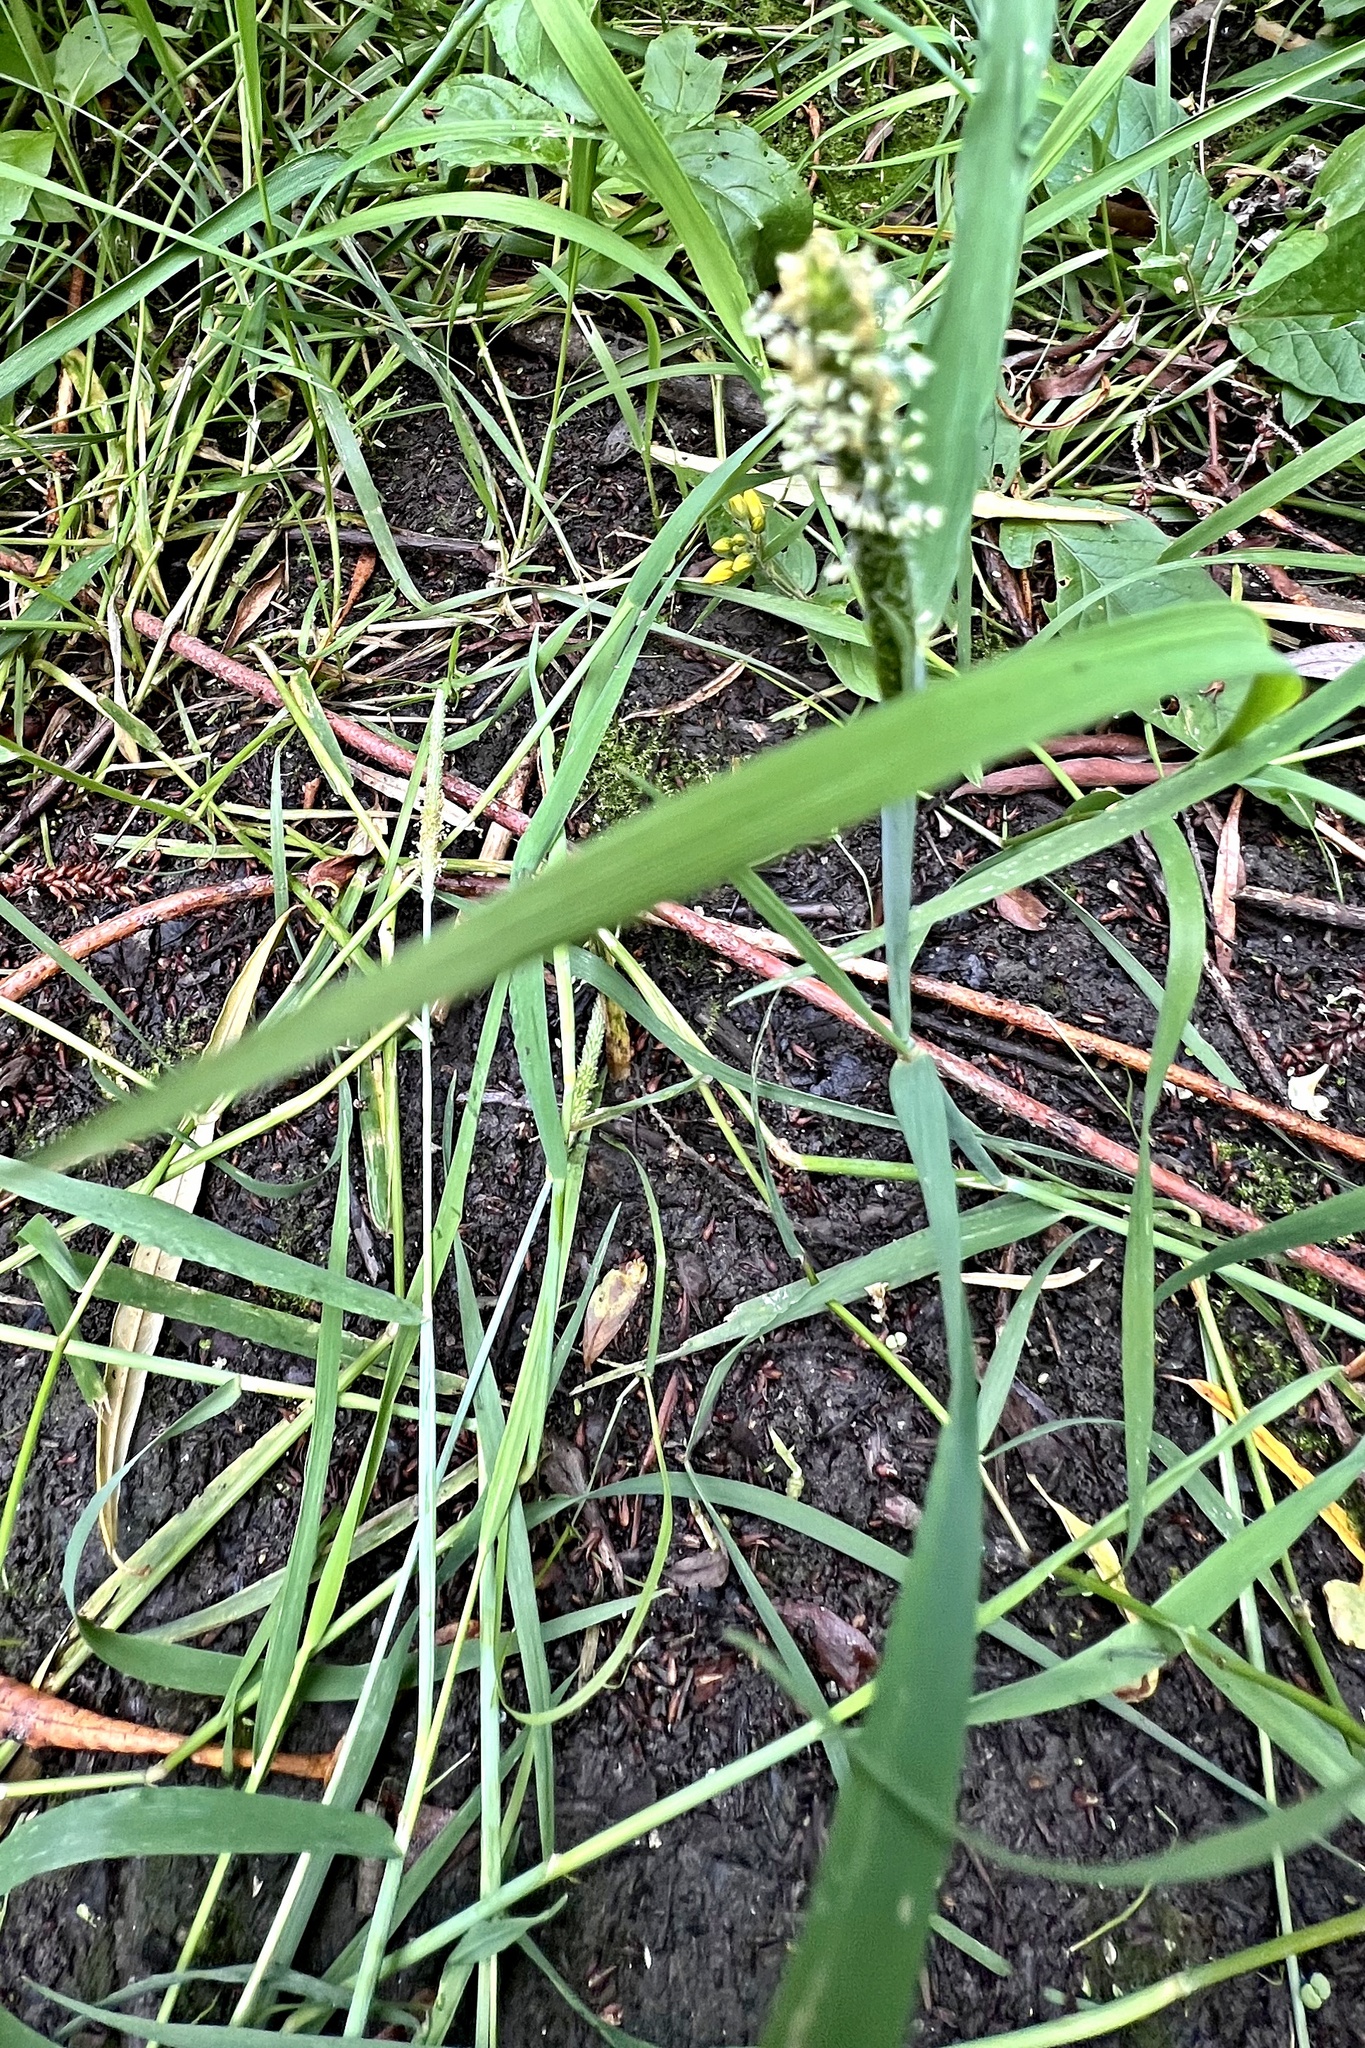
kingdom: Plantae
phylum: Tracheophyta
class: Liliopsida
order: Poales
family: Poaceae
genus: Alopecurus
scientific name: Alopecurus aequalis
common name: Orange foxtail
